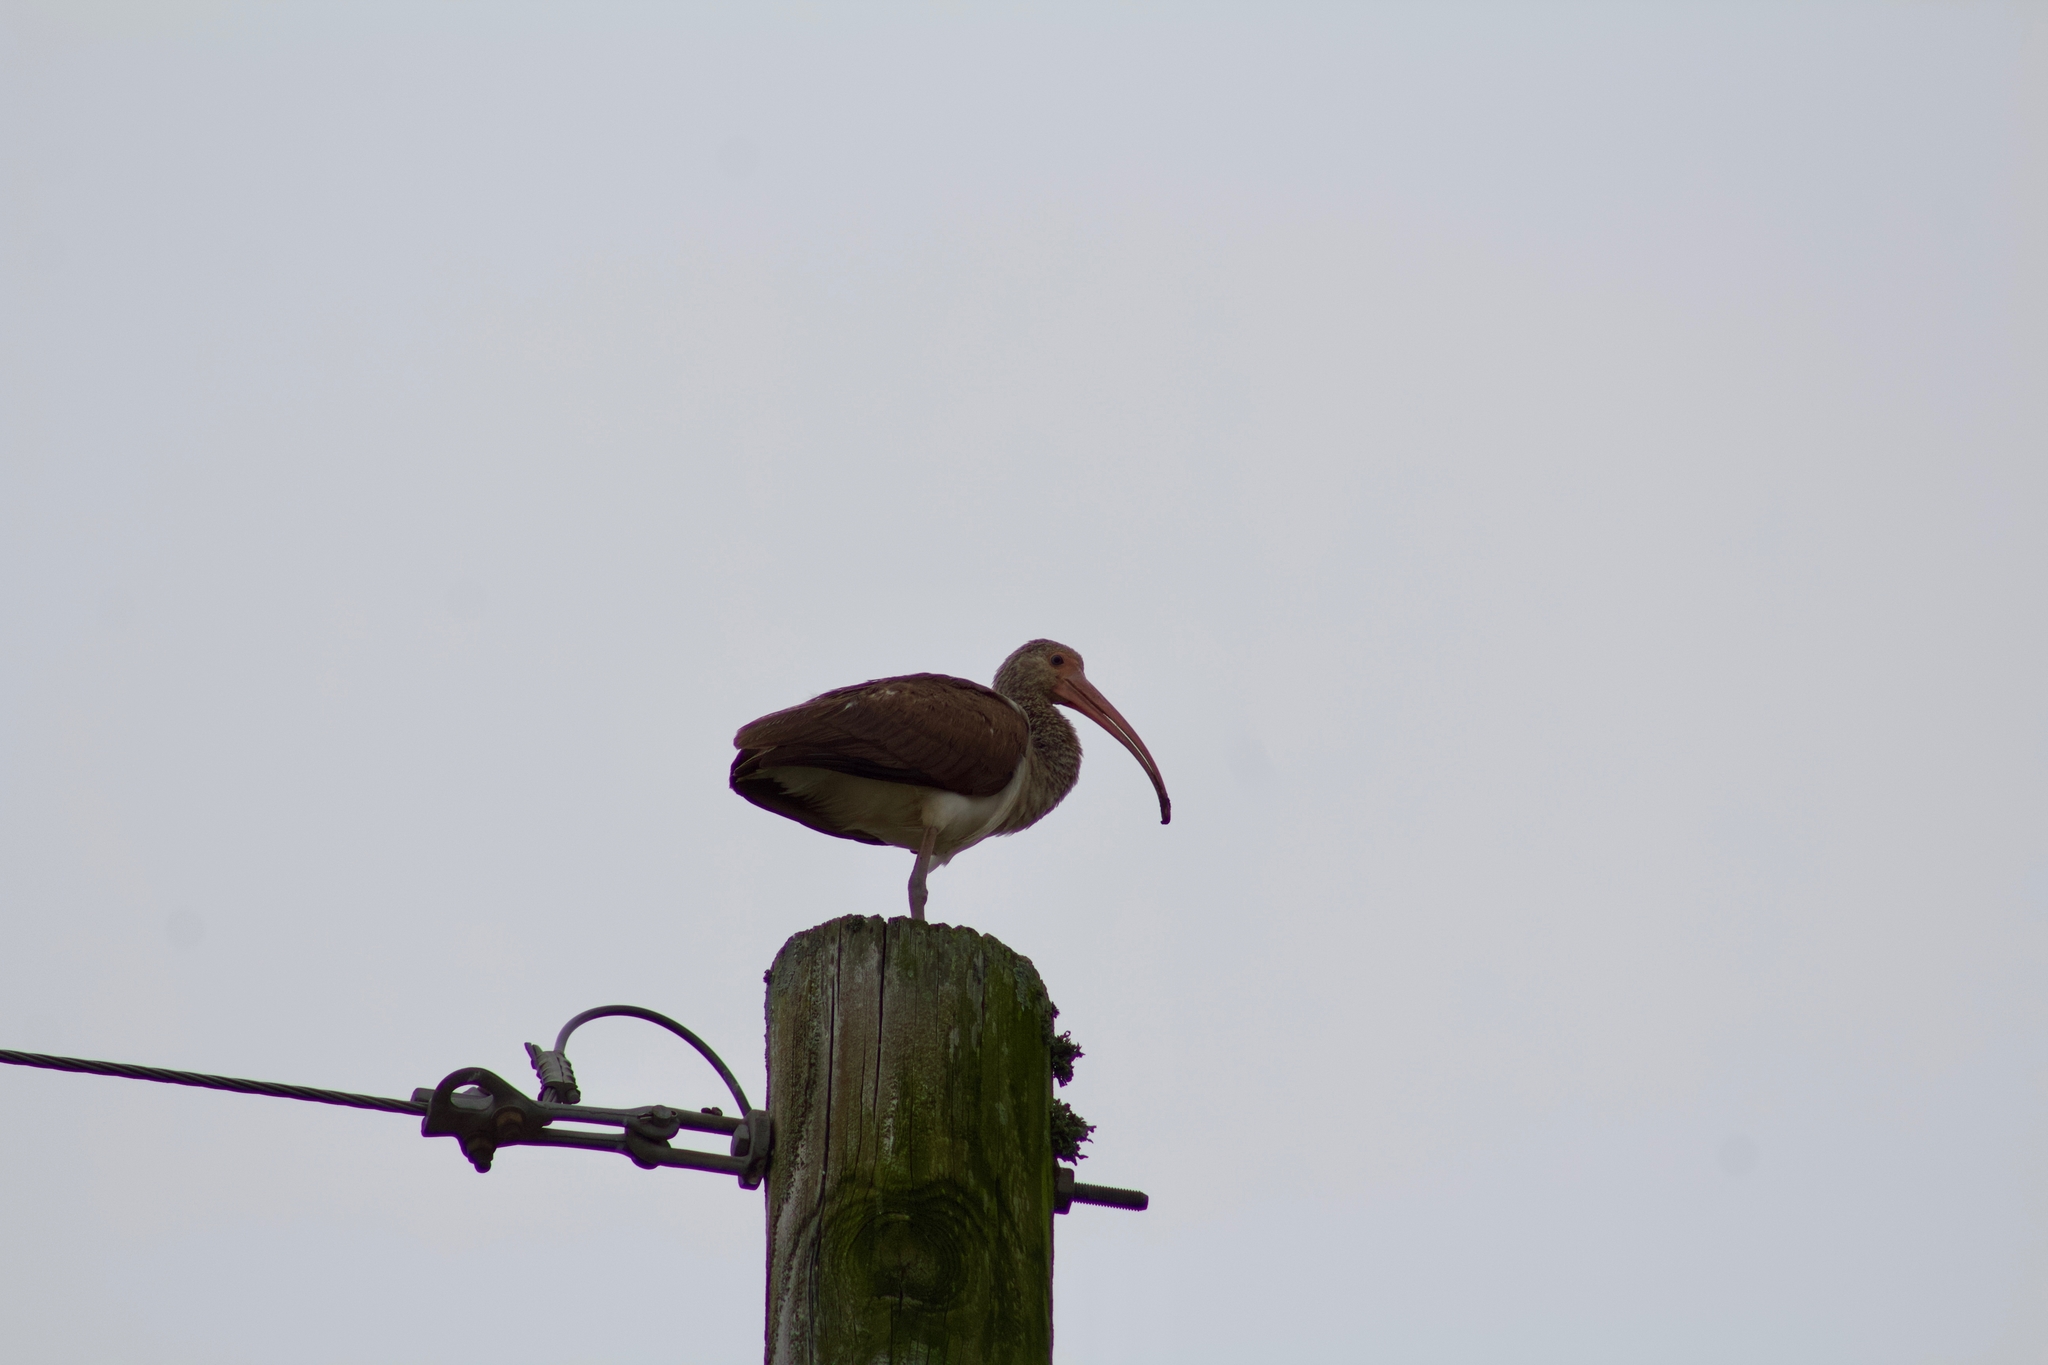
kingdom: Animalia
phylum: Chordata
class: Aves
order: Pelecaniformes
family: Threskiornithidae
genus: Eudocimus
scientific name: Eudocimus albus
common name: White ibis
